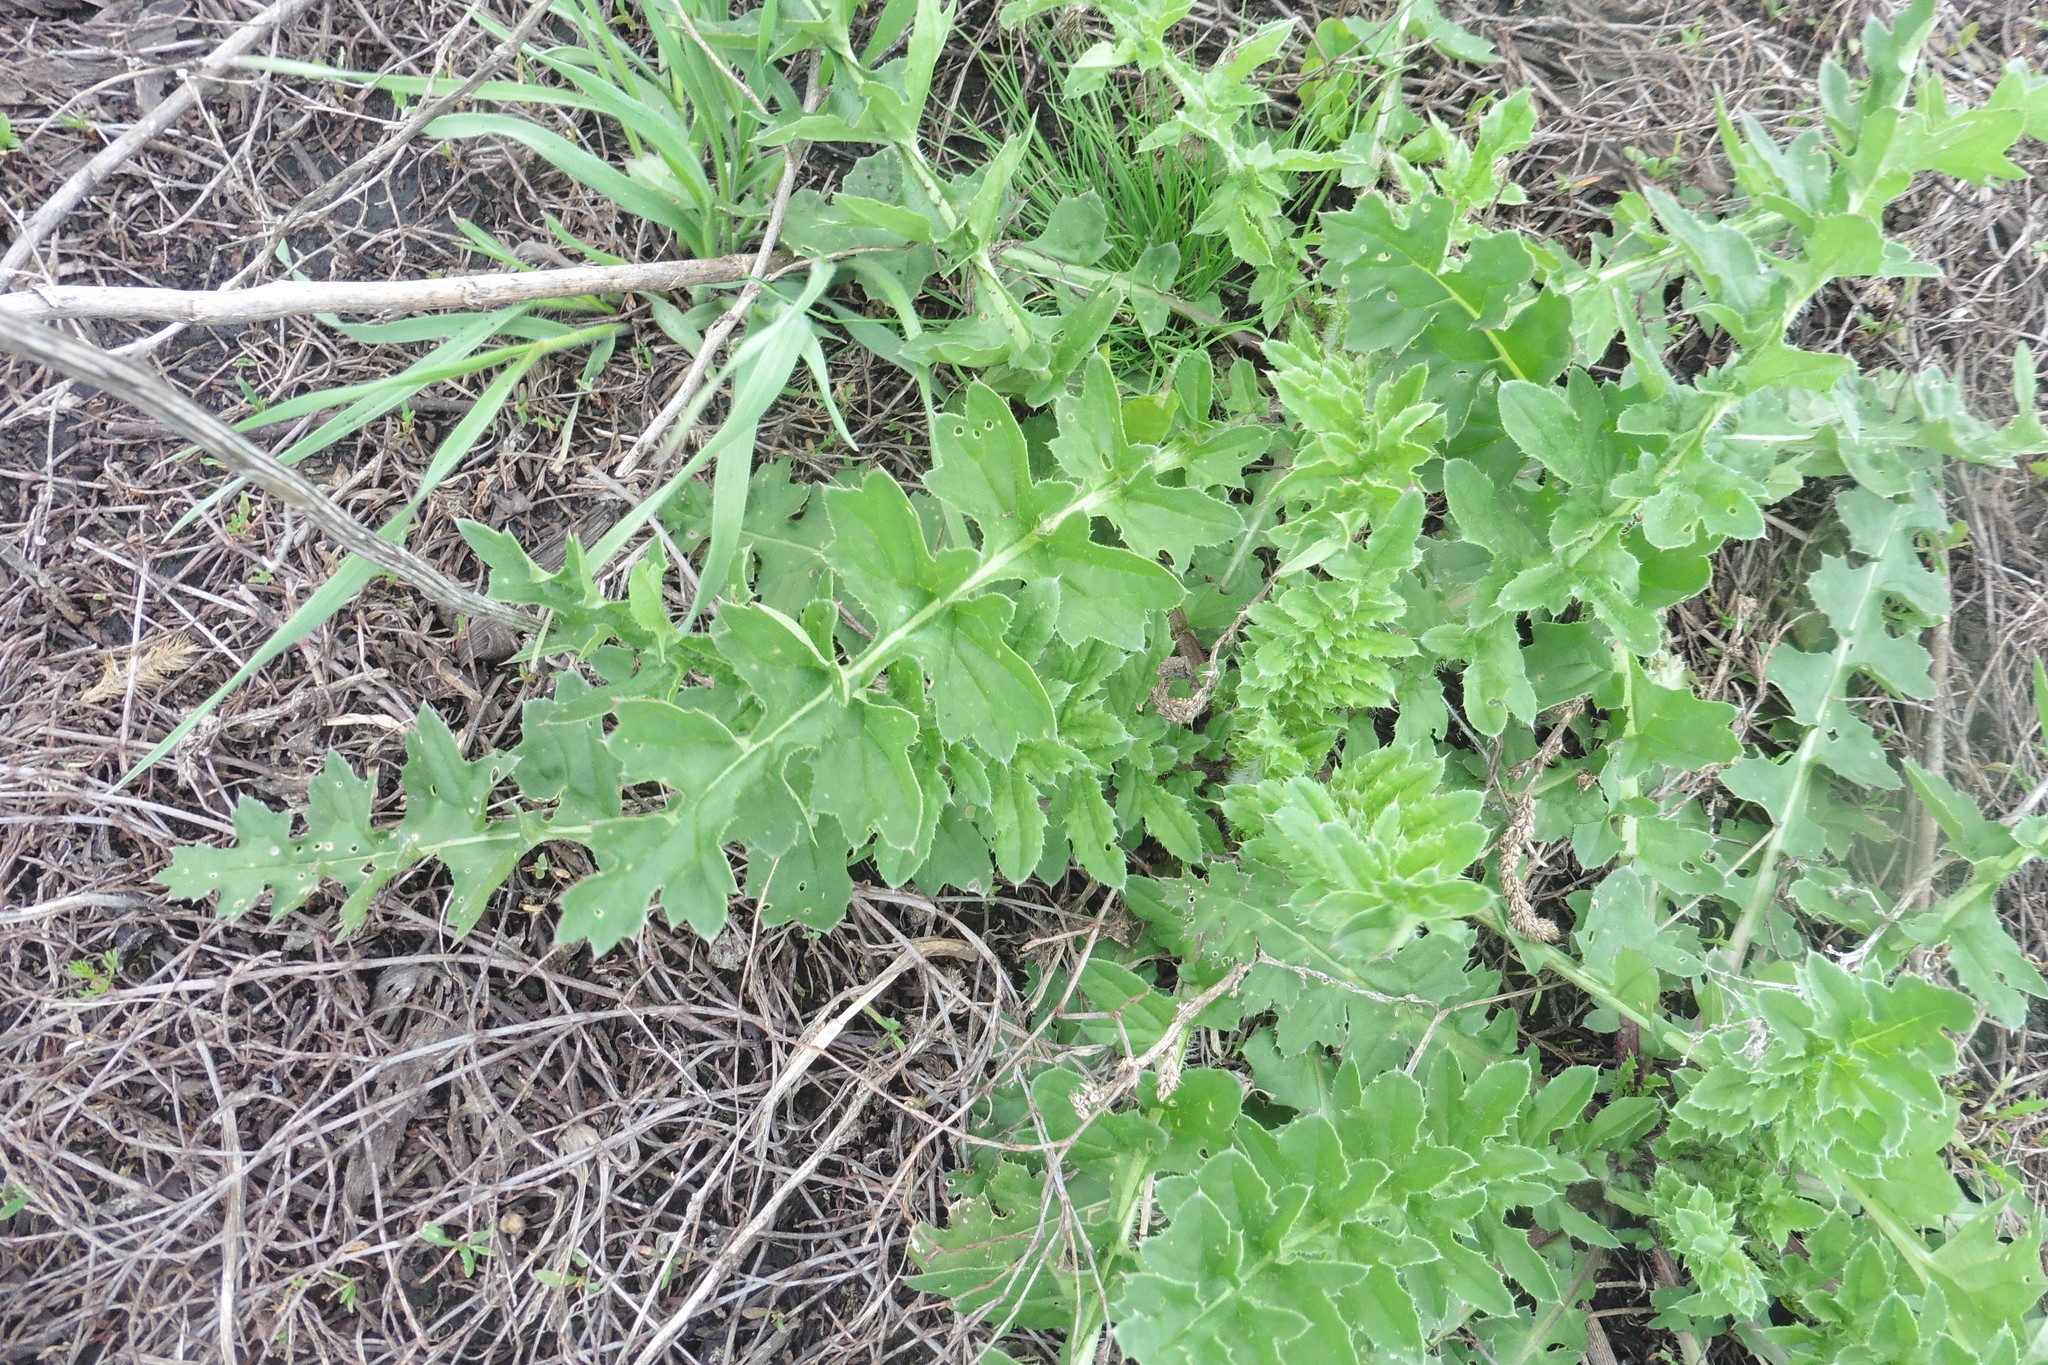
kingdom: Plantae
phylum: Tracheophyta
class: Magnoliopsida
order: Asterales
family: Asteraceae
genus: Carduus
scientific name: Carduus acanthoides
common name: Plumeless thistle
